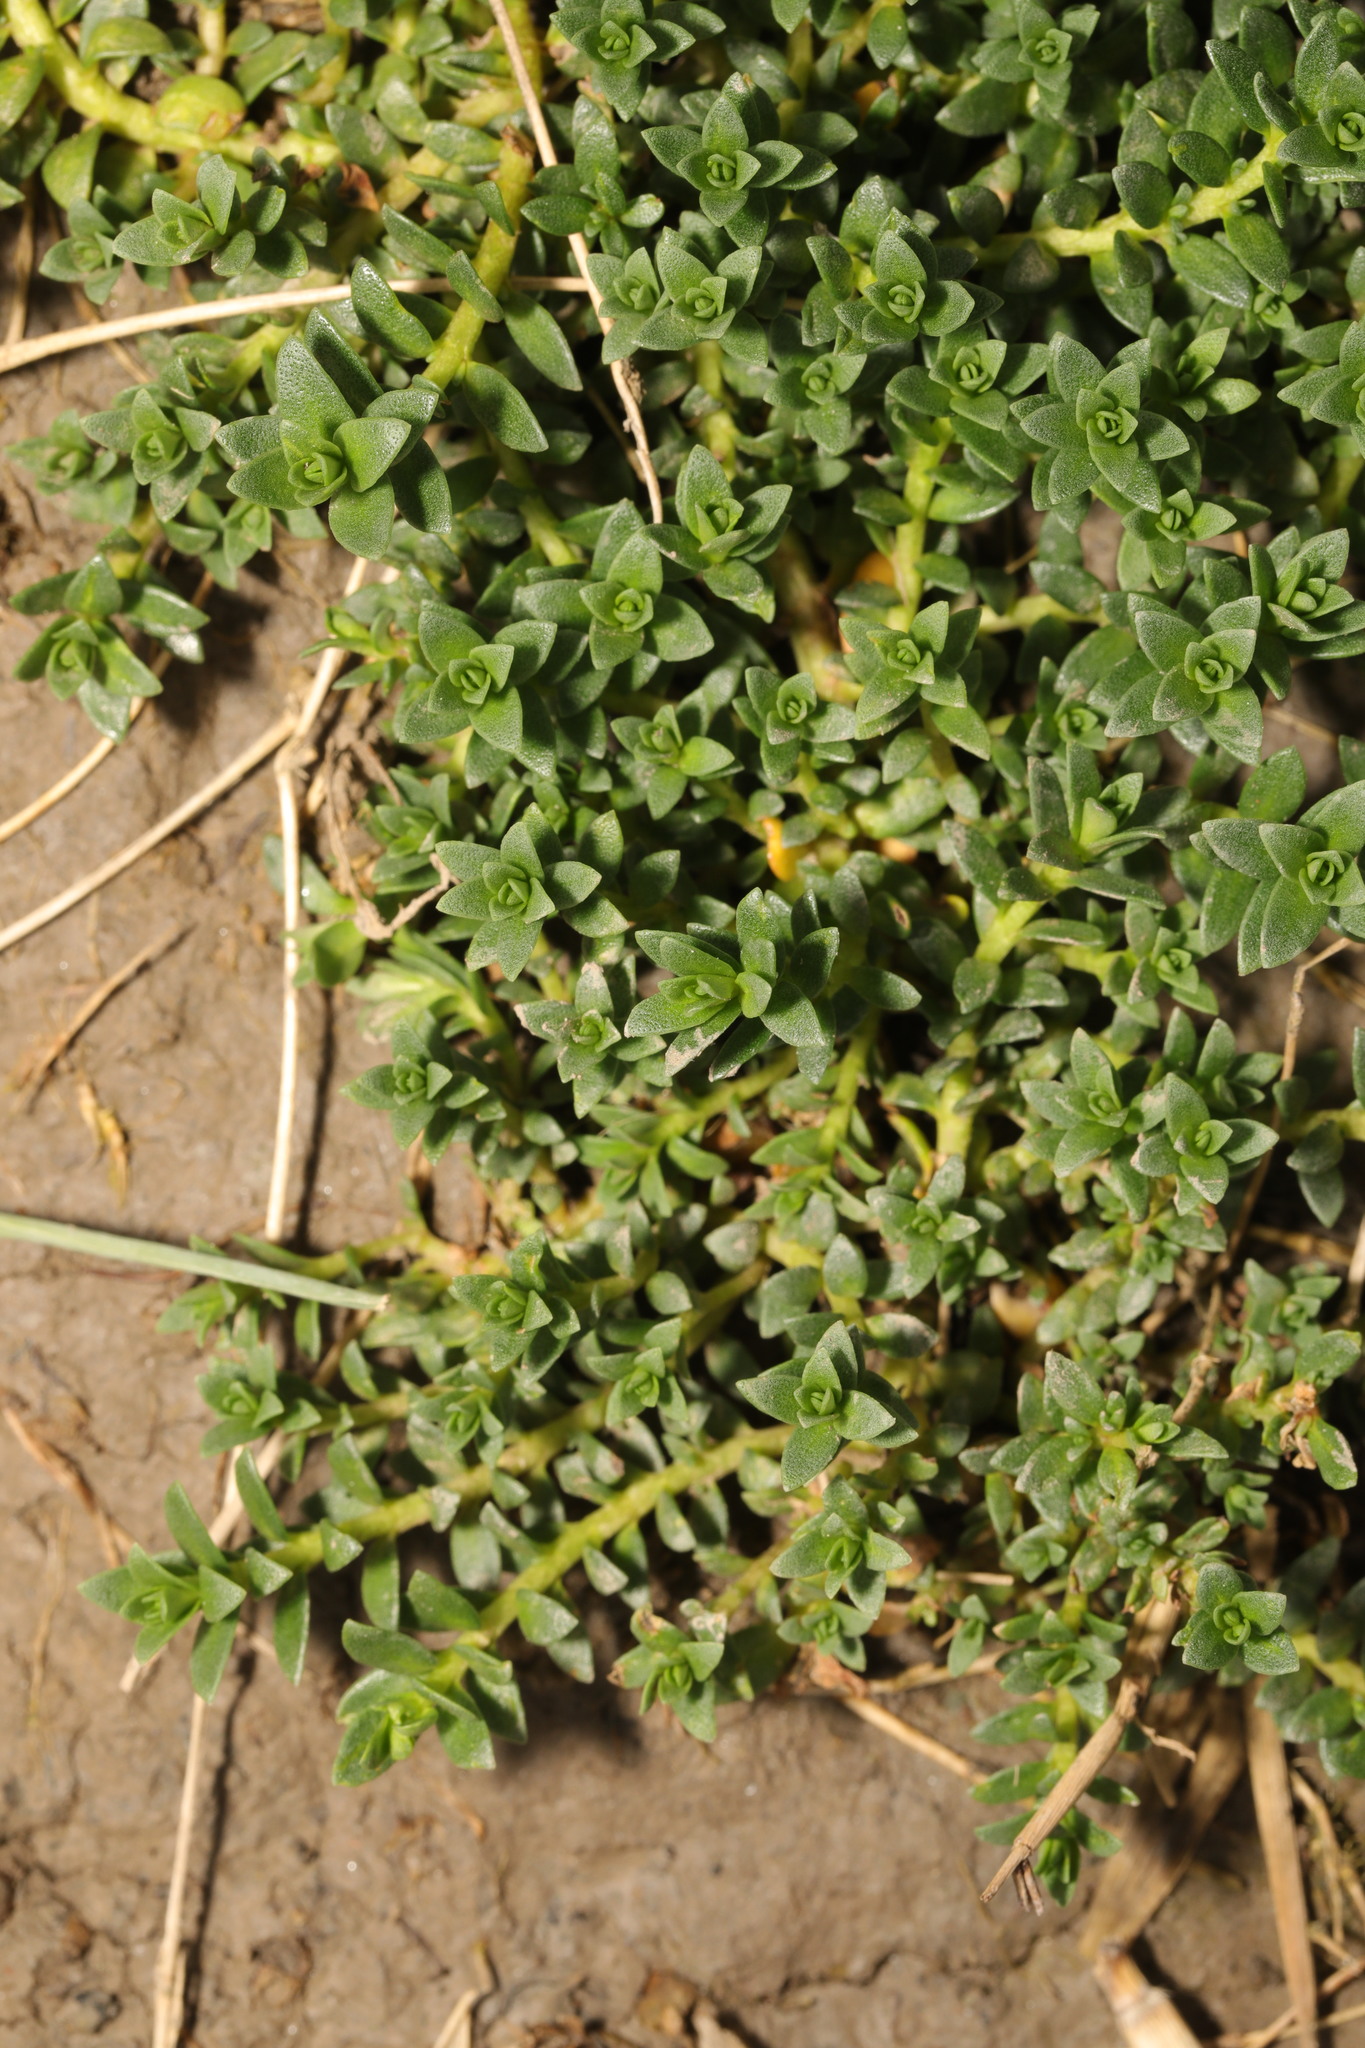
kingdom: Plantae
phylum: Tracheophyta
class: Magnoliopsida
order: Ericales
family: Primulaceae
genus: Lysimachia
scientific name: Lysimachia maritima
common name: Sea milkwort
